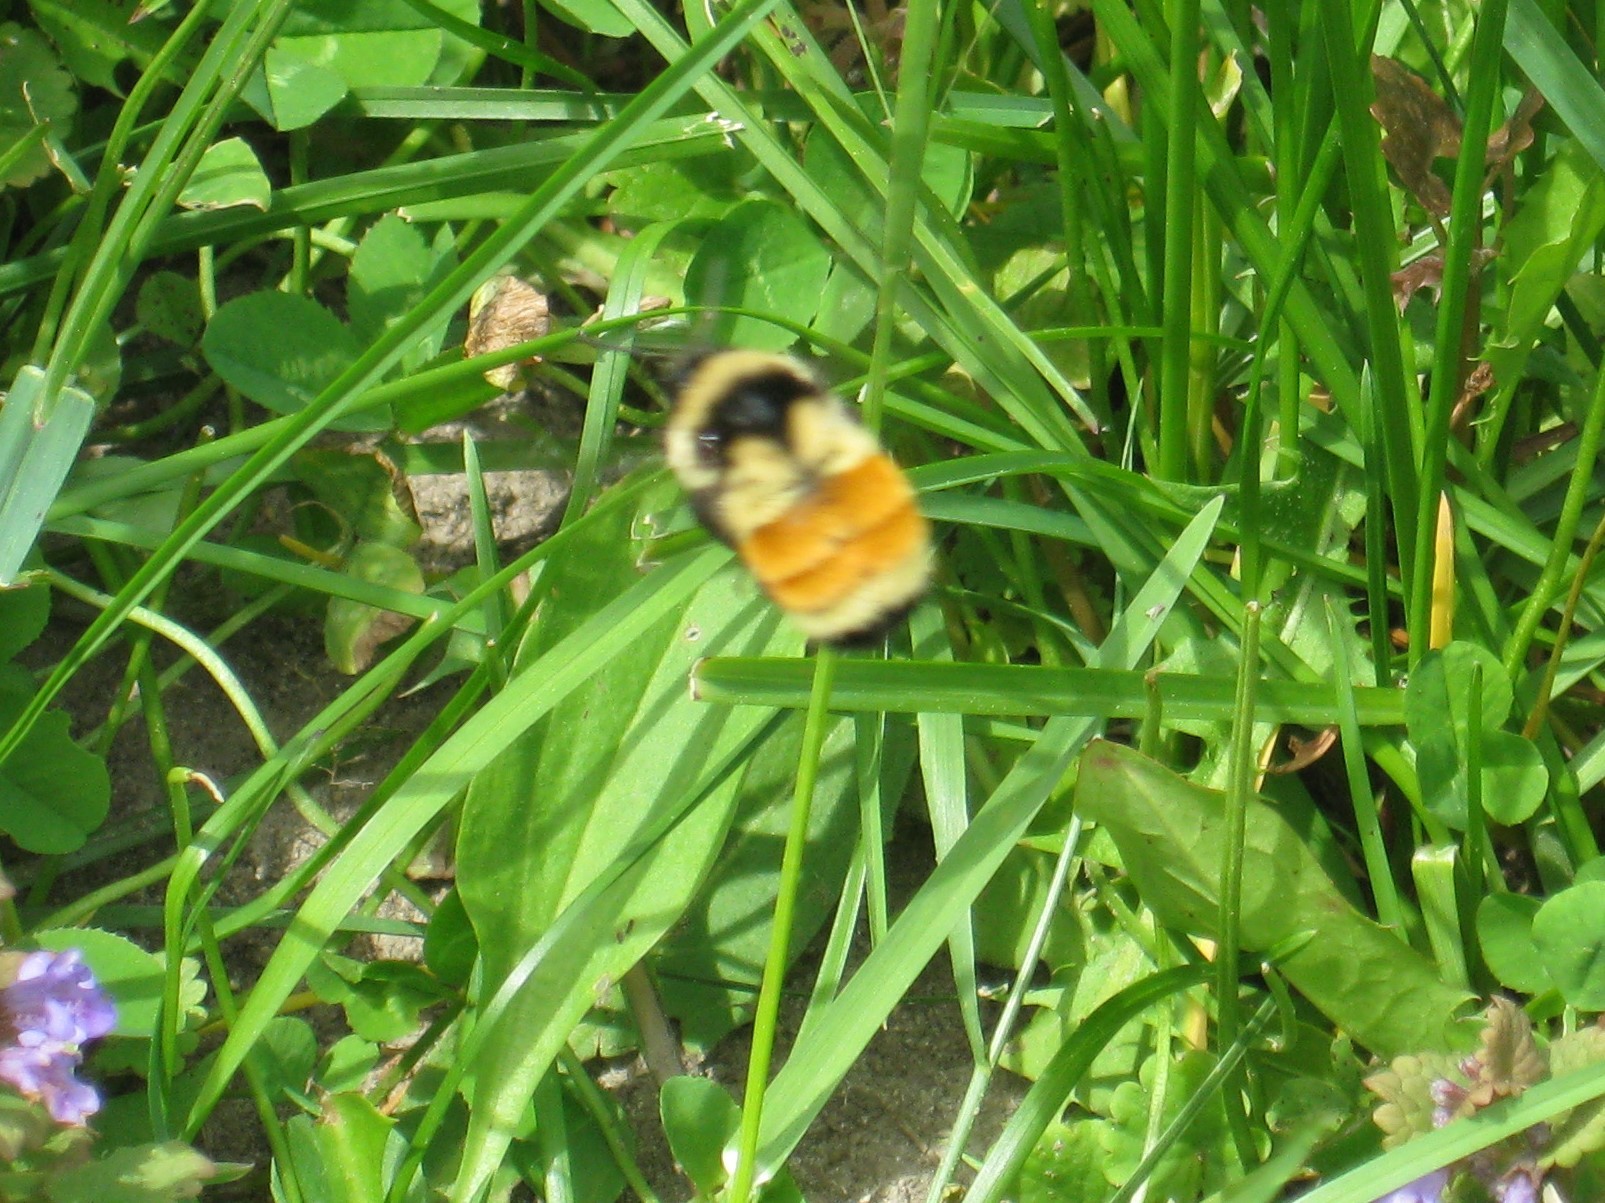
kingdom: Animalia
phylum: Arthropoda
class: Insecta
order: Hymenoptera
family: Apidae
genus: Bombus
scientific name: Bombus ternarius
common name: Tri-colored bumble bee
